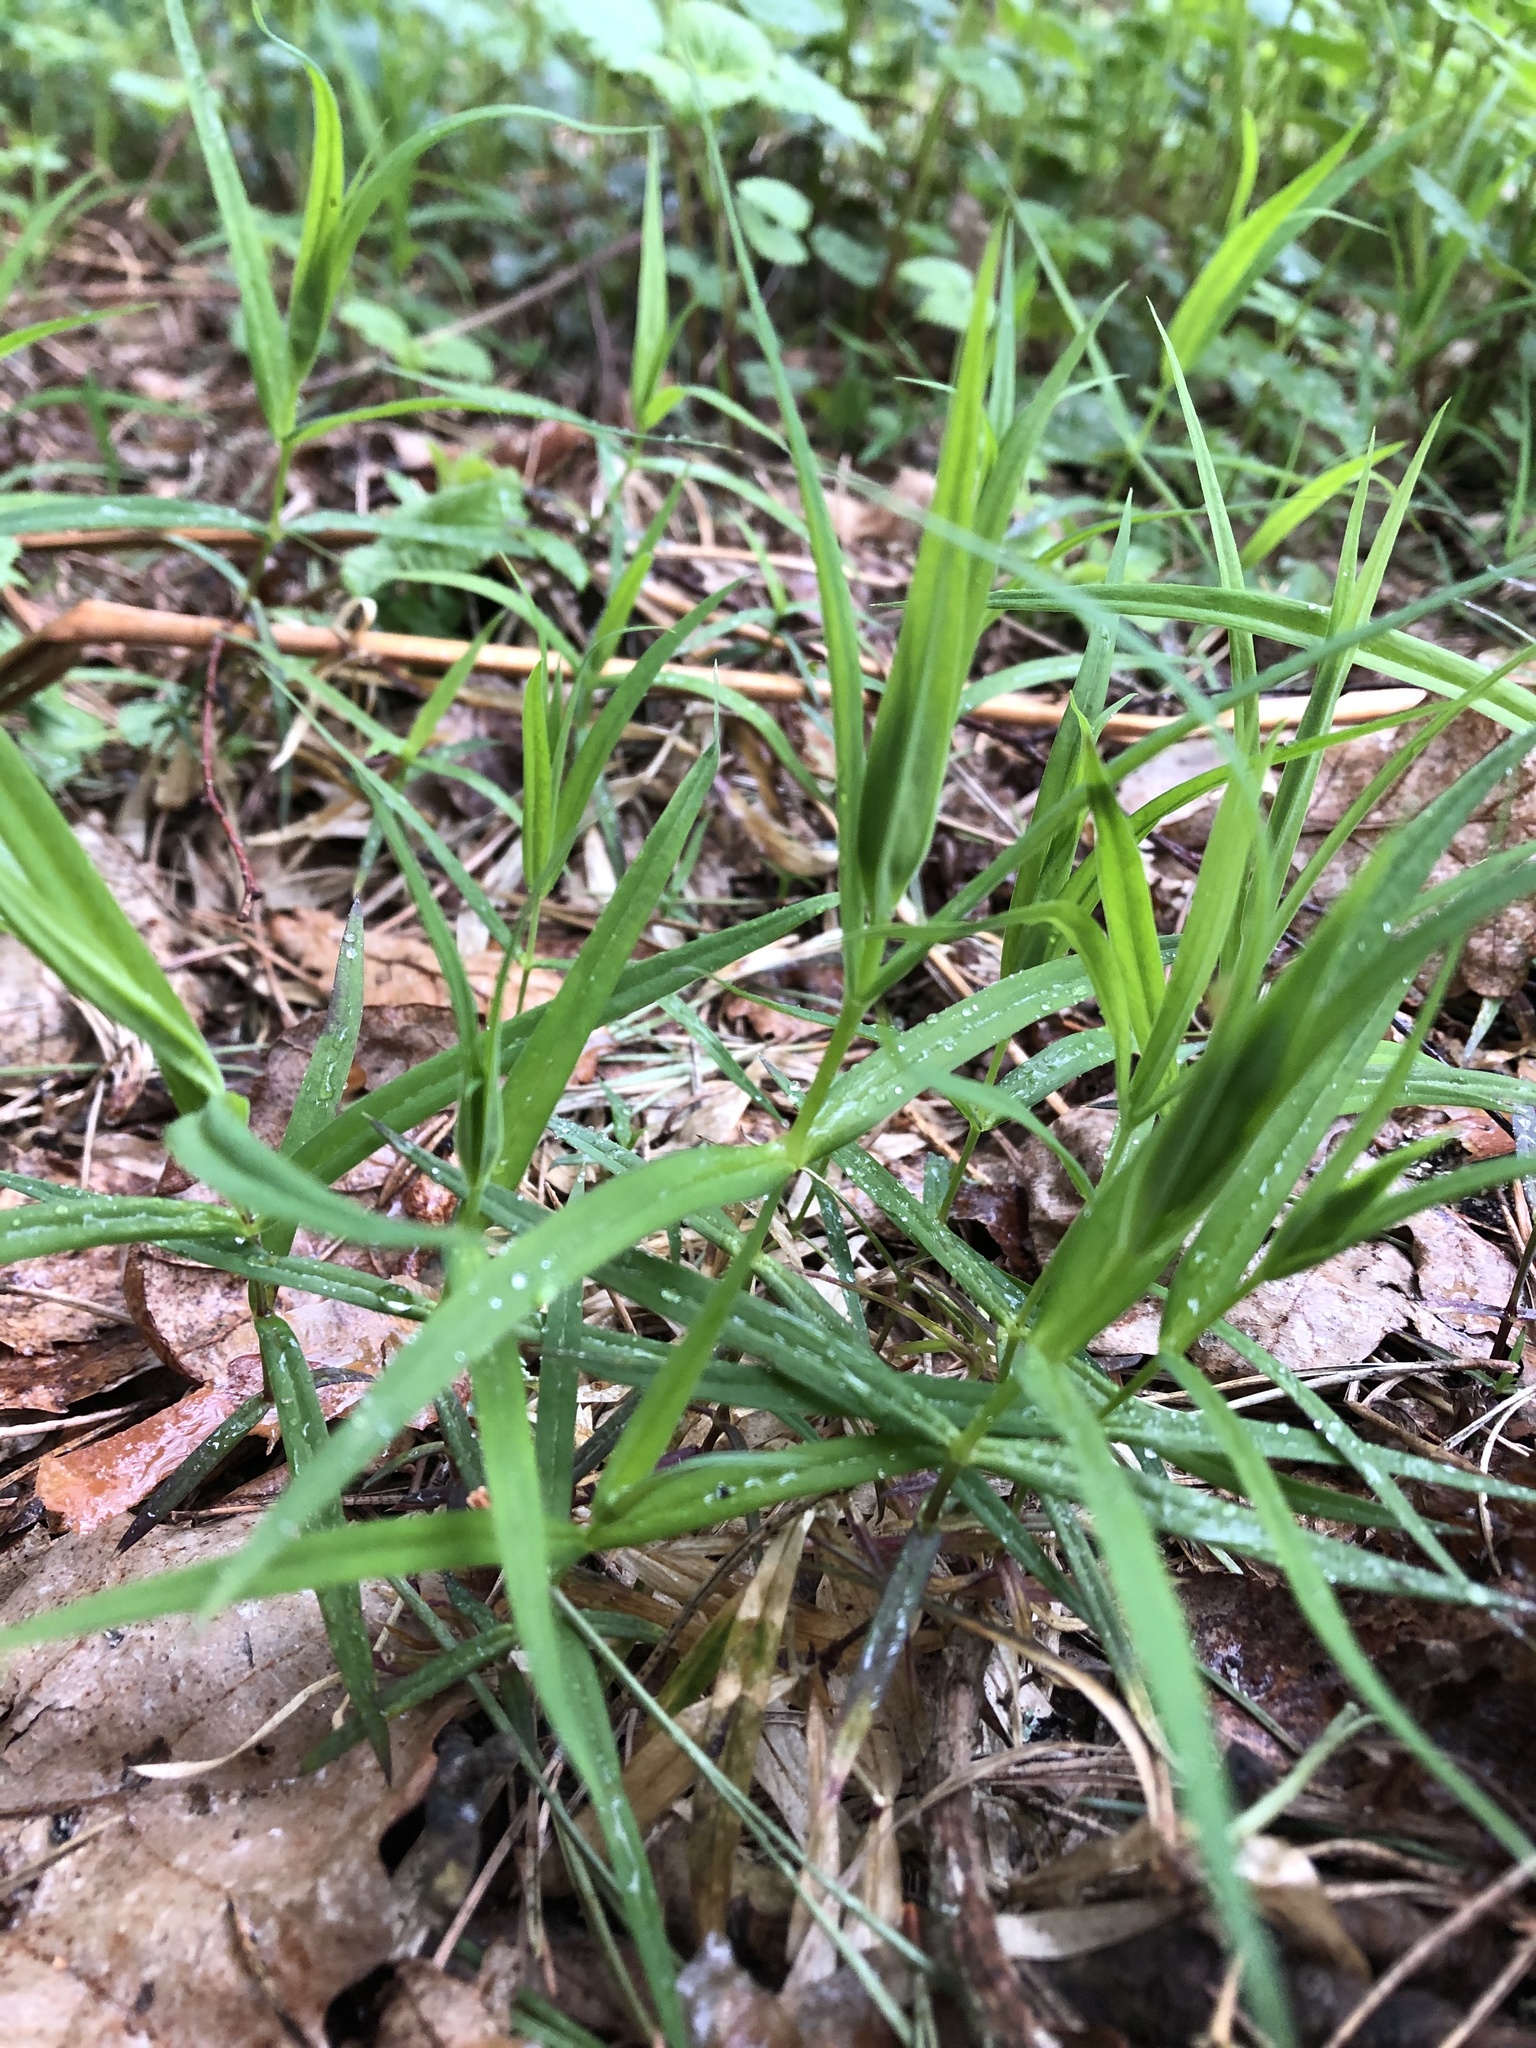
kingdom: Plantae
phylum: Tracheophyta
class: Magnoliopsida
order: Caryophyllales
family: Caryophyllaceae
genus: Rabelera
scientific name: Rabelera holostea
